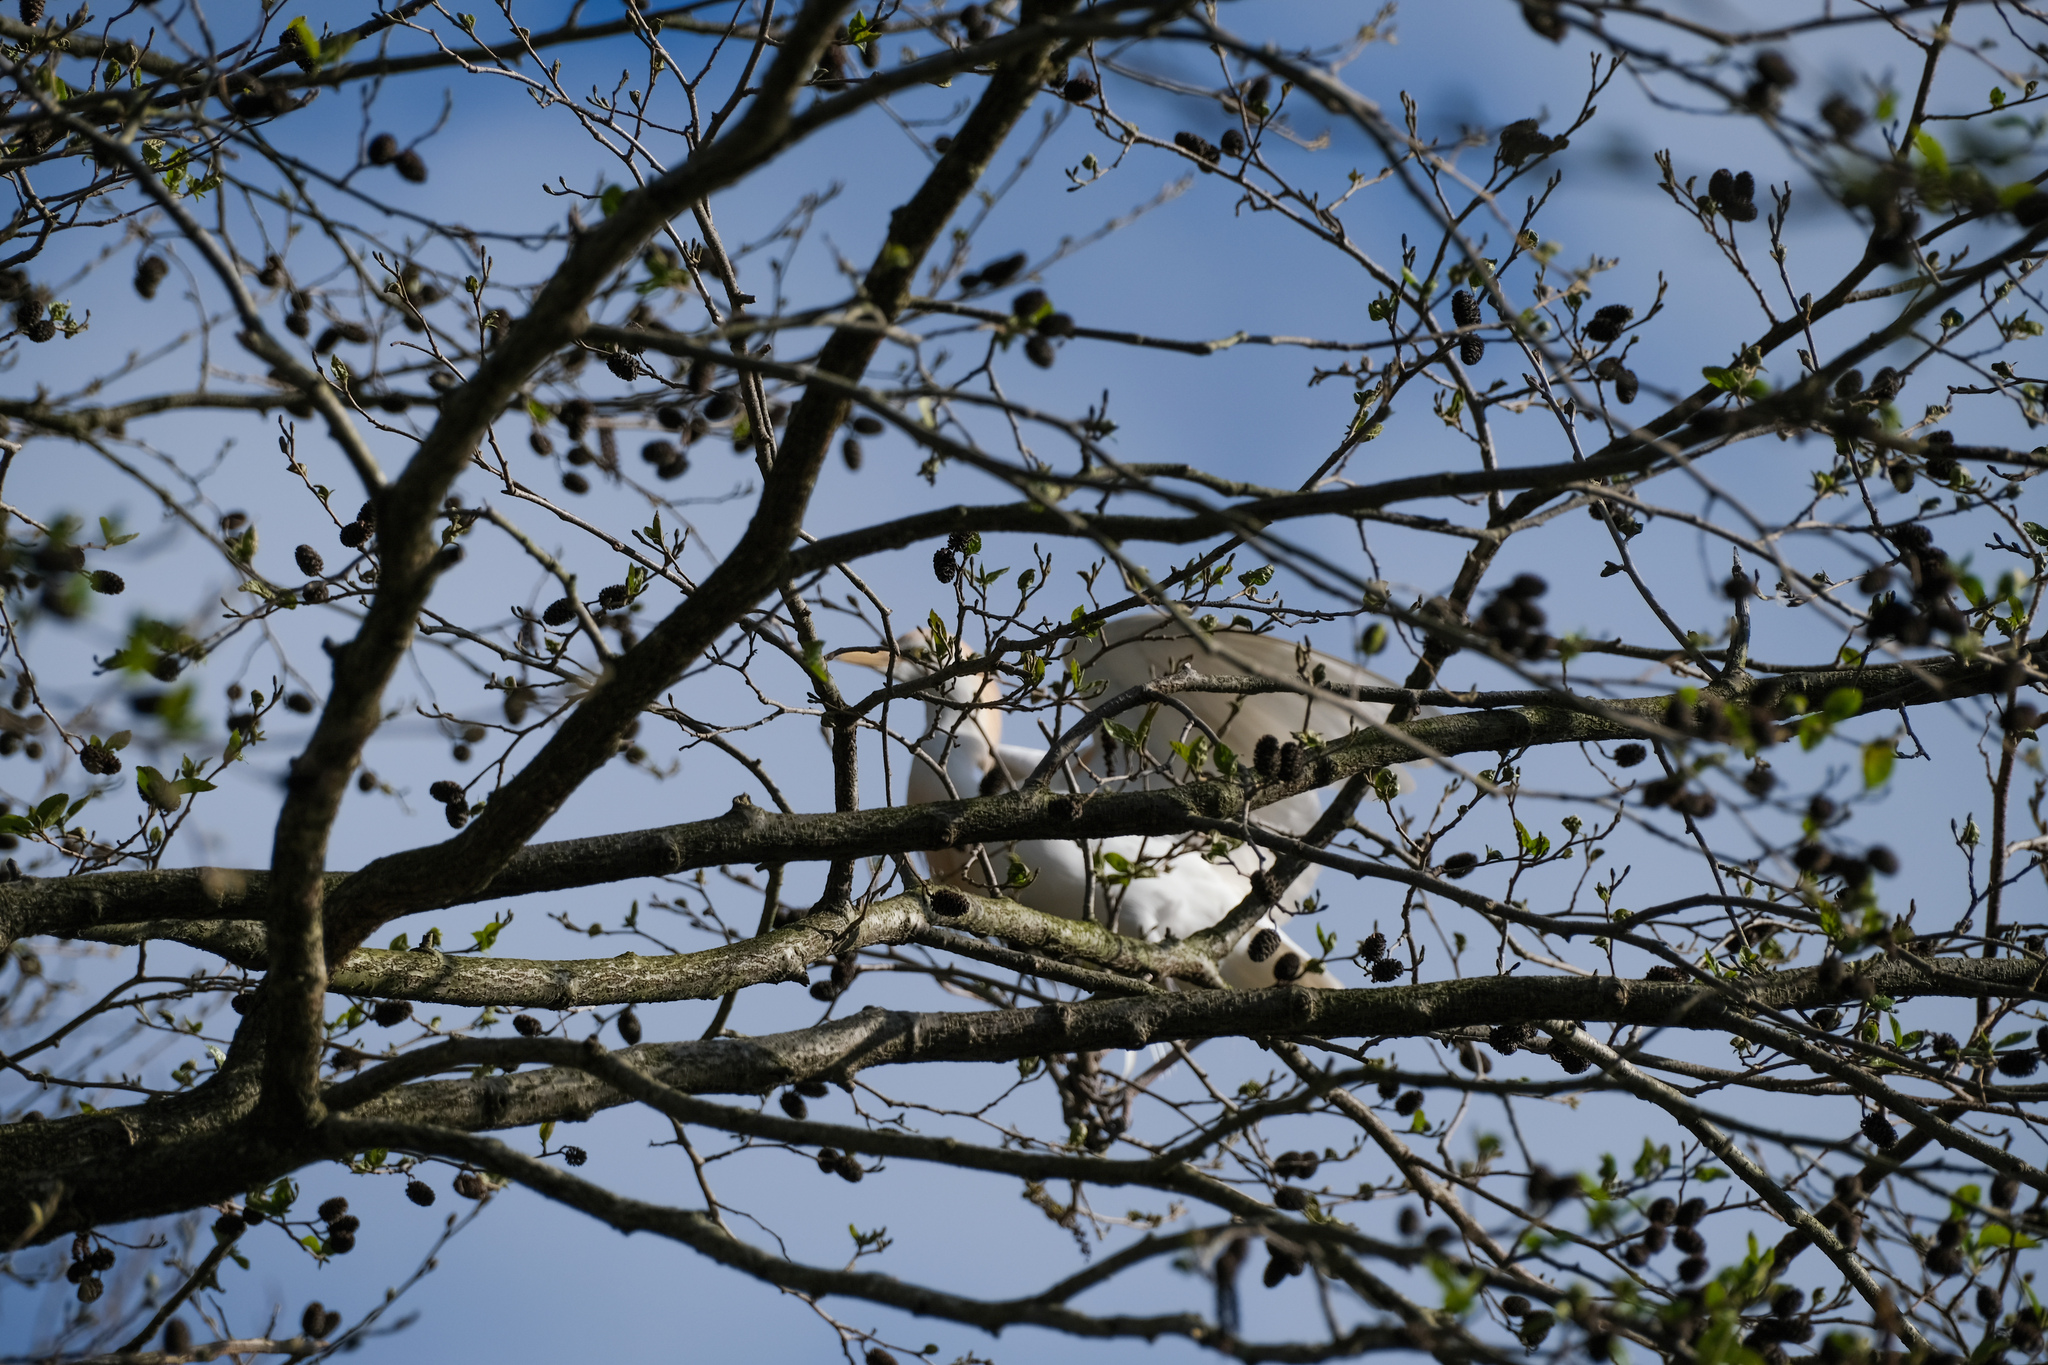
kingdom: Animalia
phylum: Chordata
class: Aves
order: Pelecaniformes
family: Ardeidae
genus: Bubulcus
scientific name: Bubulcus ibis
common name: Cattle egret
